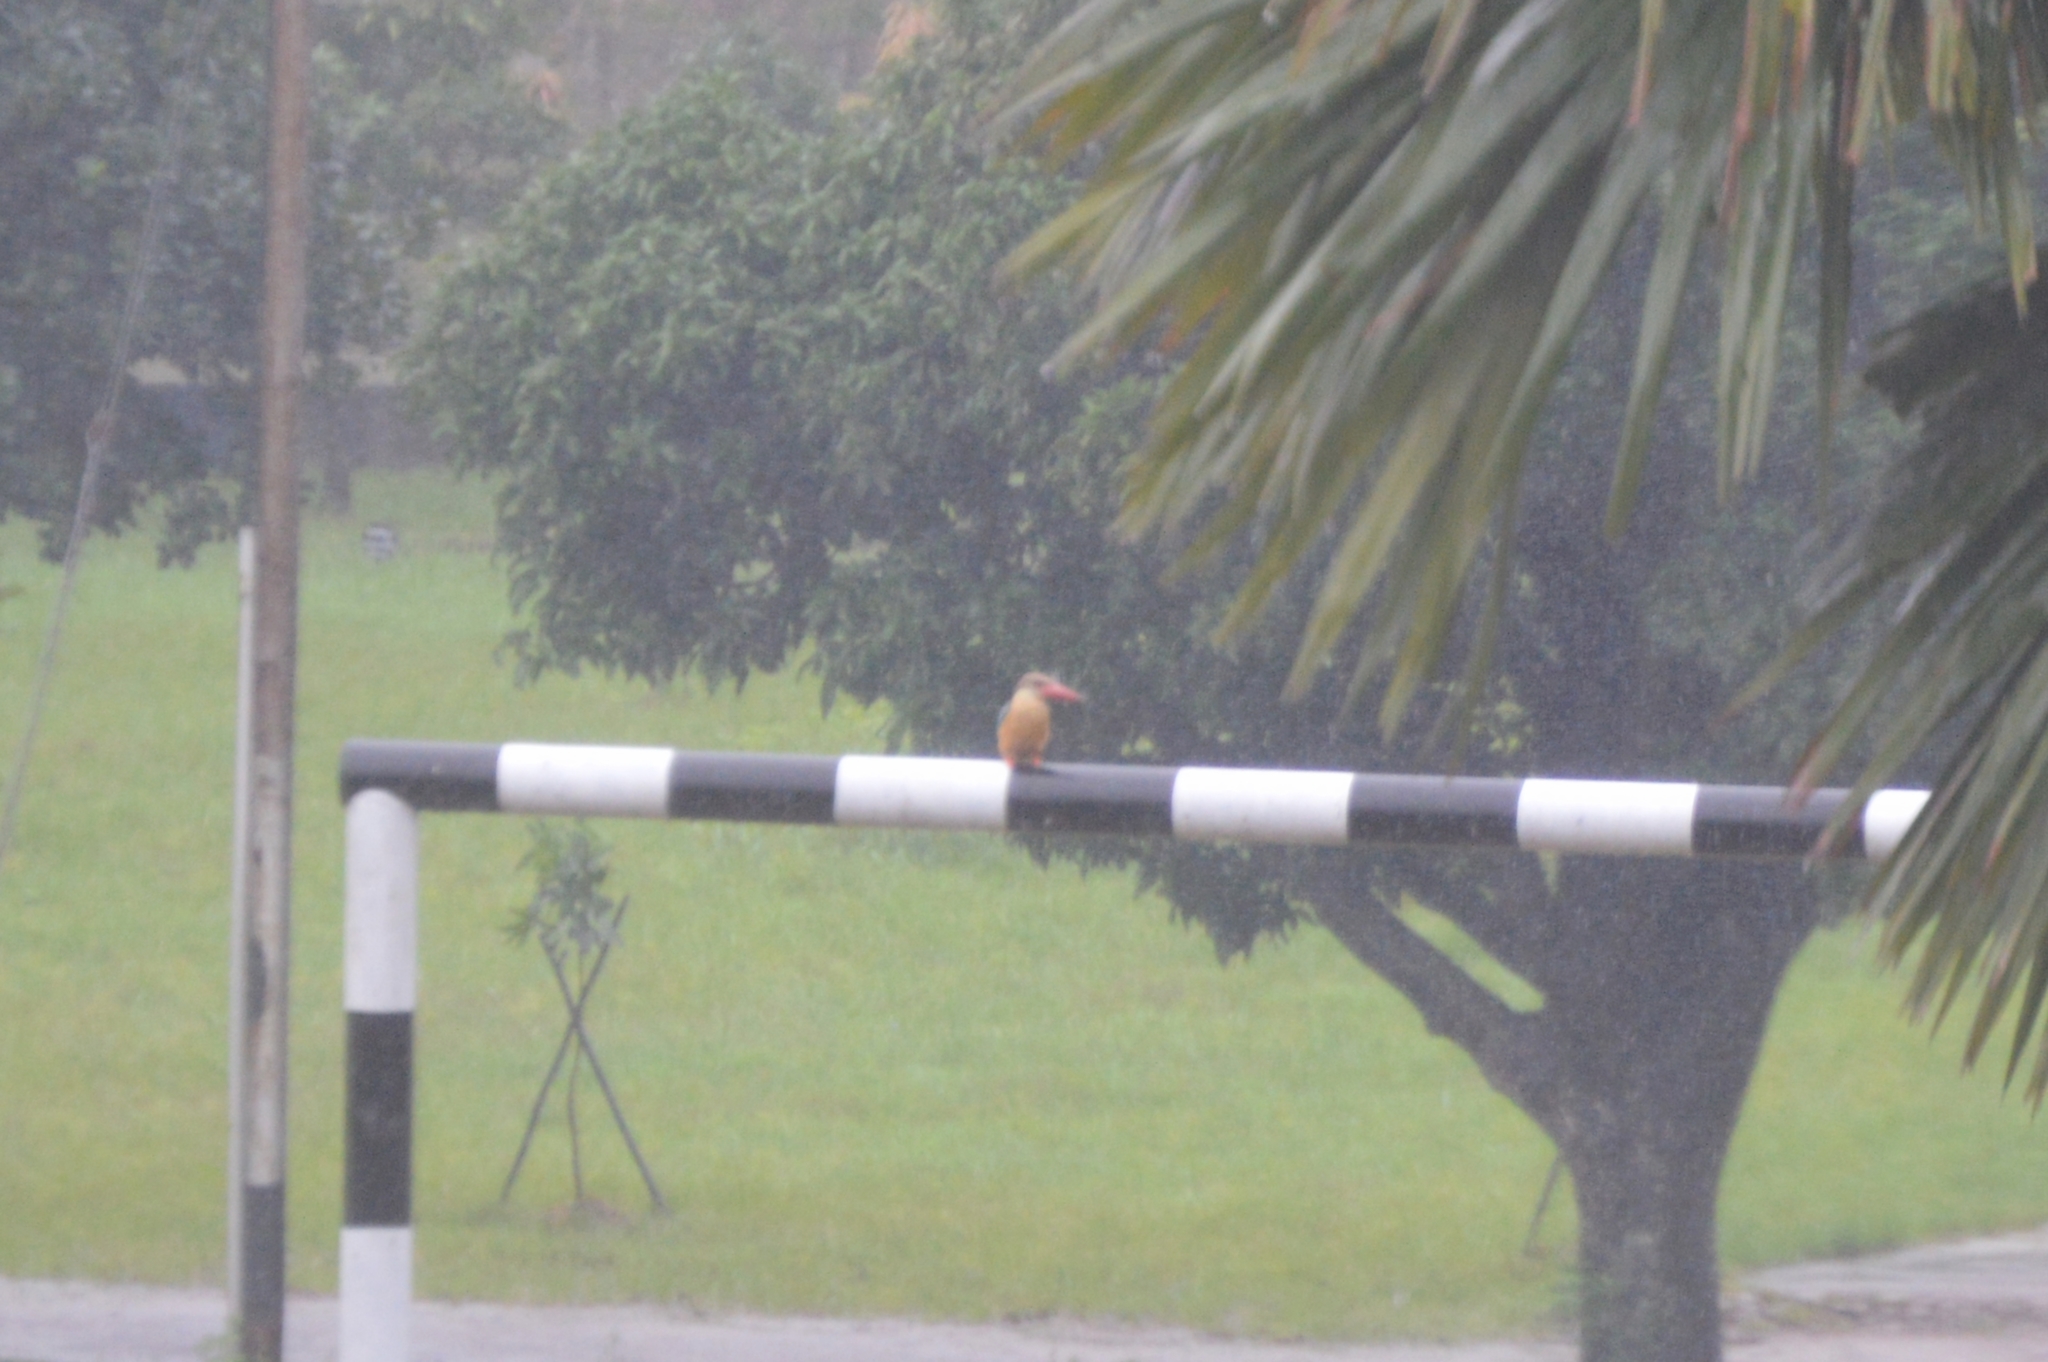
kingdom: Animalia
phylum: Chordata
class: Aves
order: Coraciiformes
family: Alcedinidae
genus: Pelargopsis
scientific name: Pelargopsis capensis
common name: Stork-billed kingfisher
